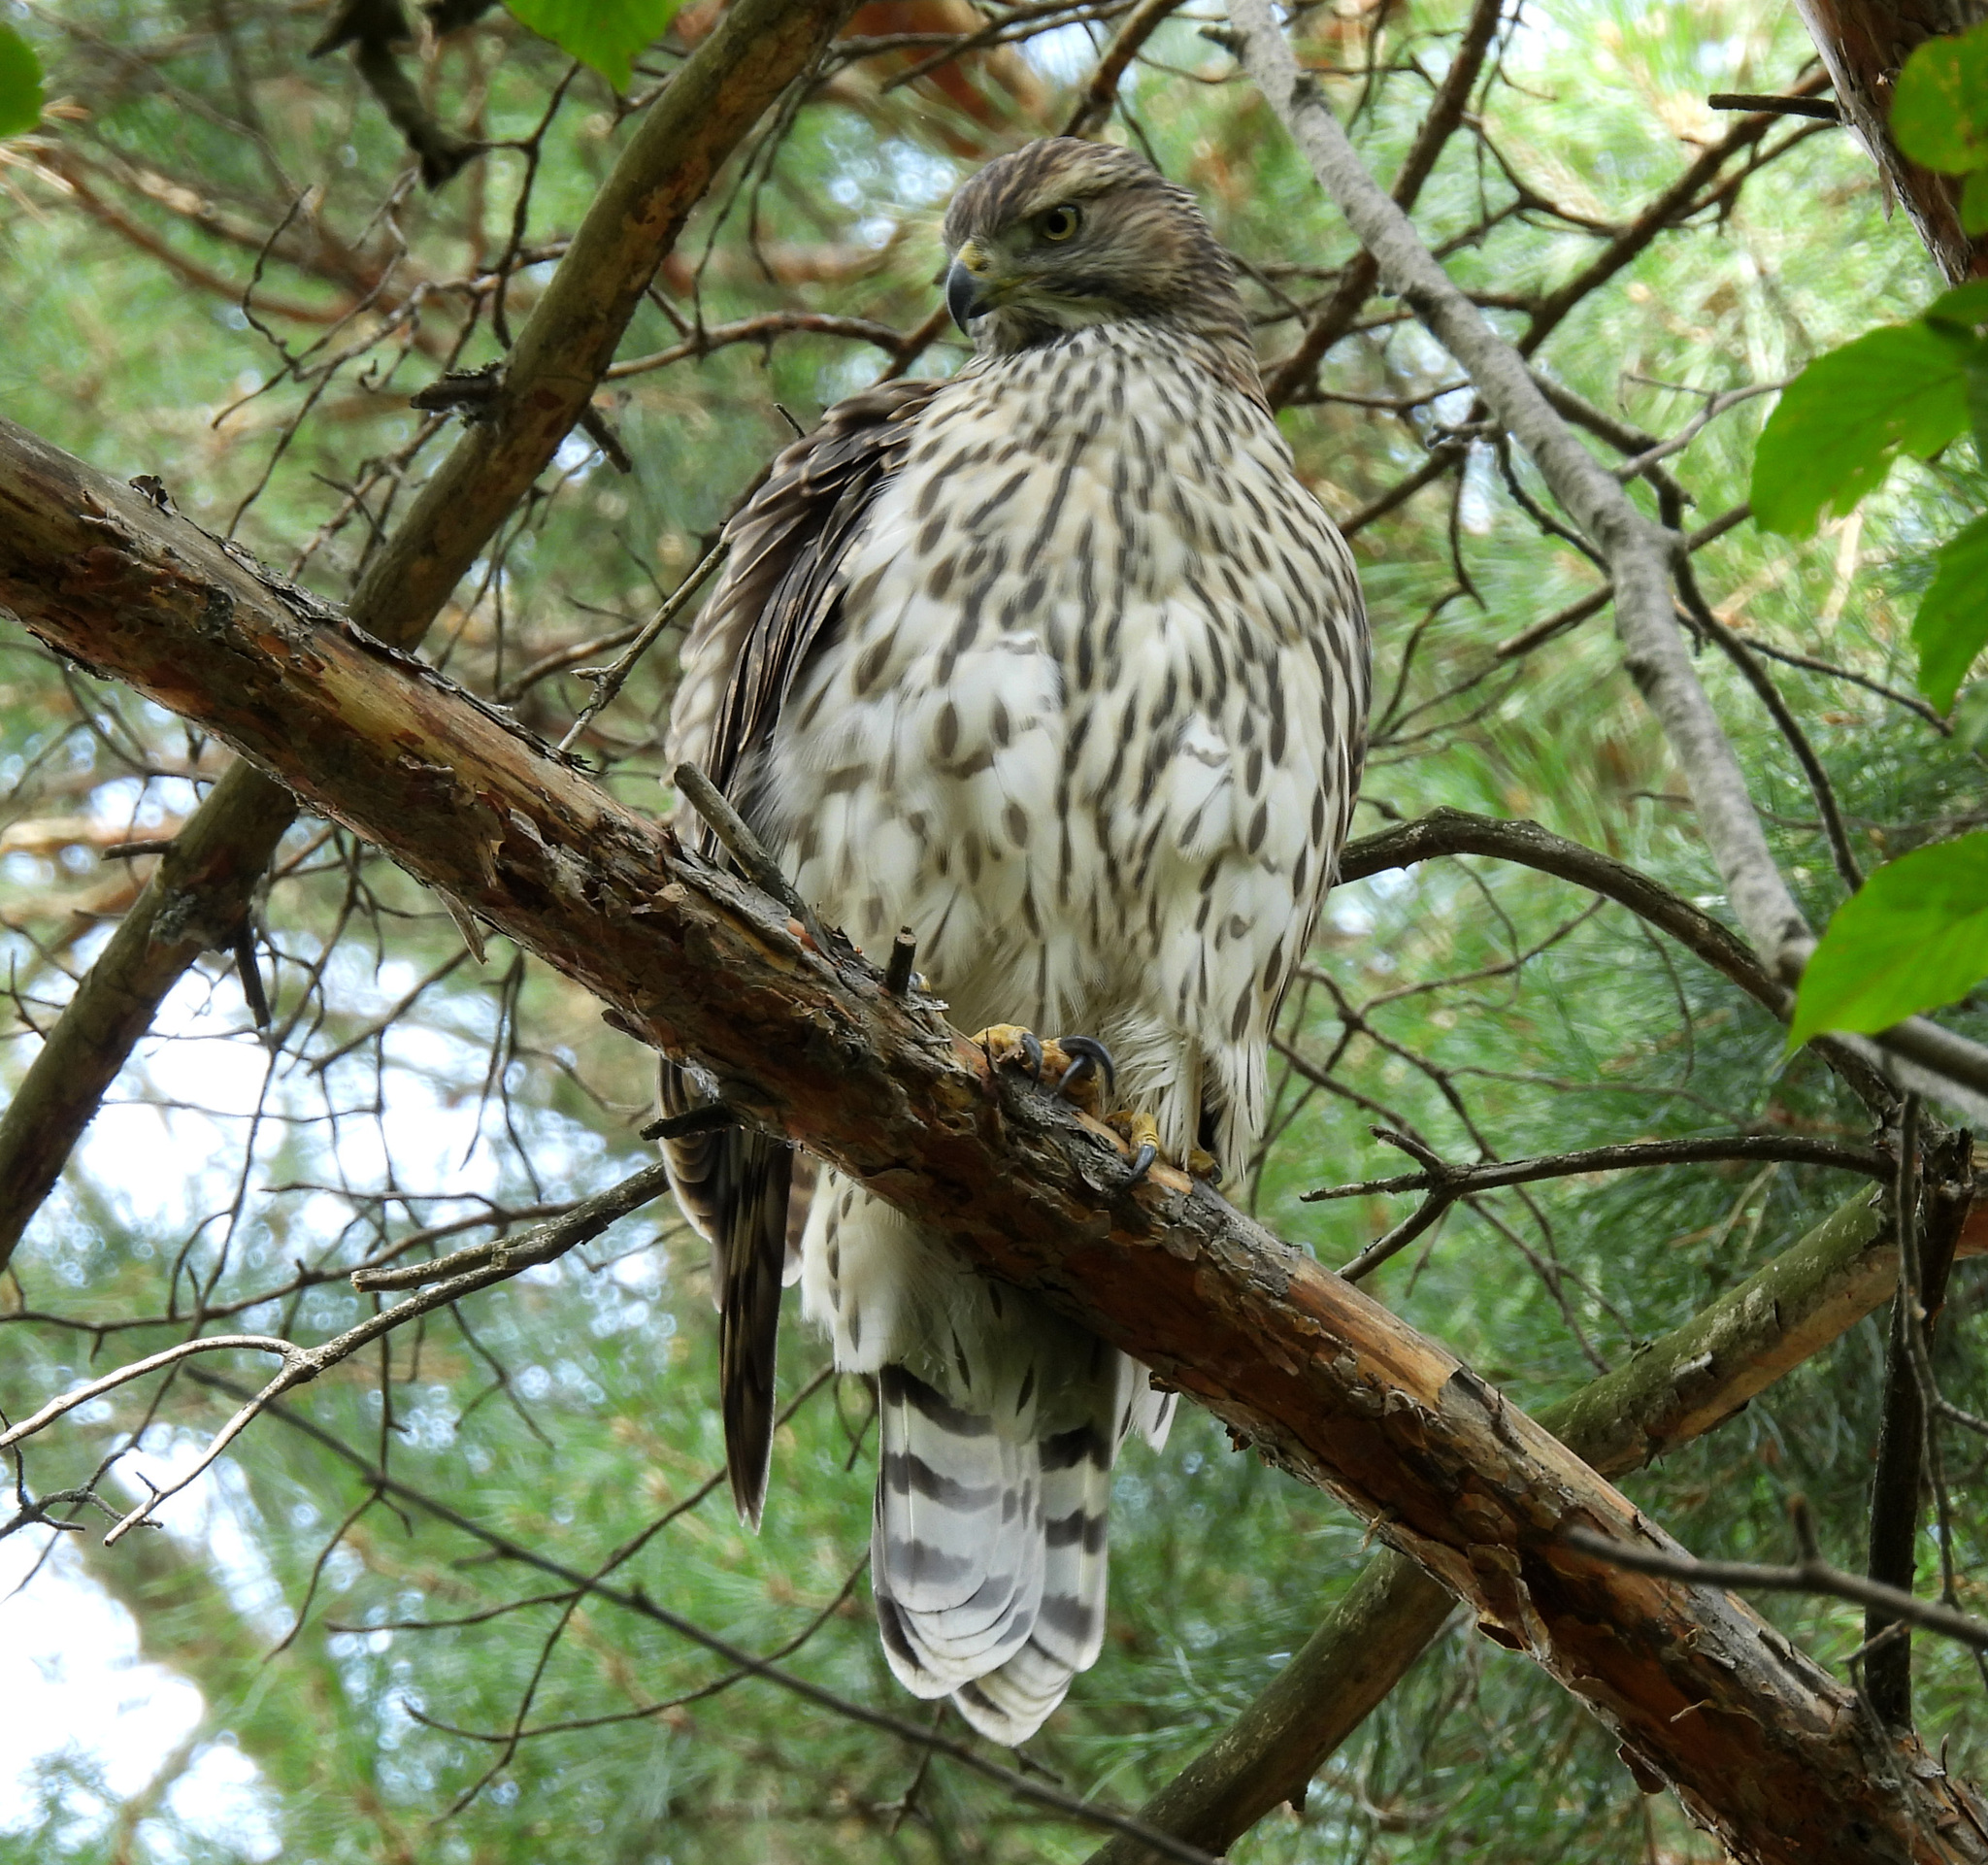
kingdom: Animalia
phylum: Chordata
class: Aves
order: Accipitriformes
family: Accipitridae
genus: Accipiter
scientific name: Accipiter gentilis
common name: Northern goshawk
